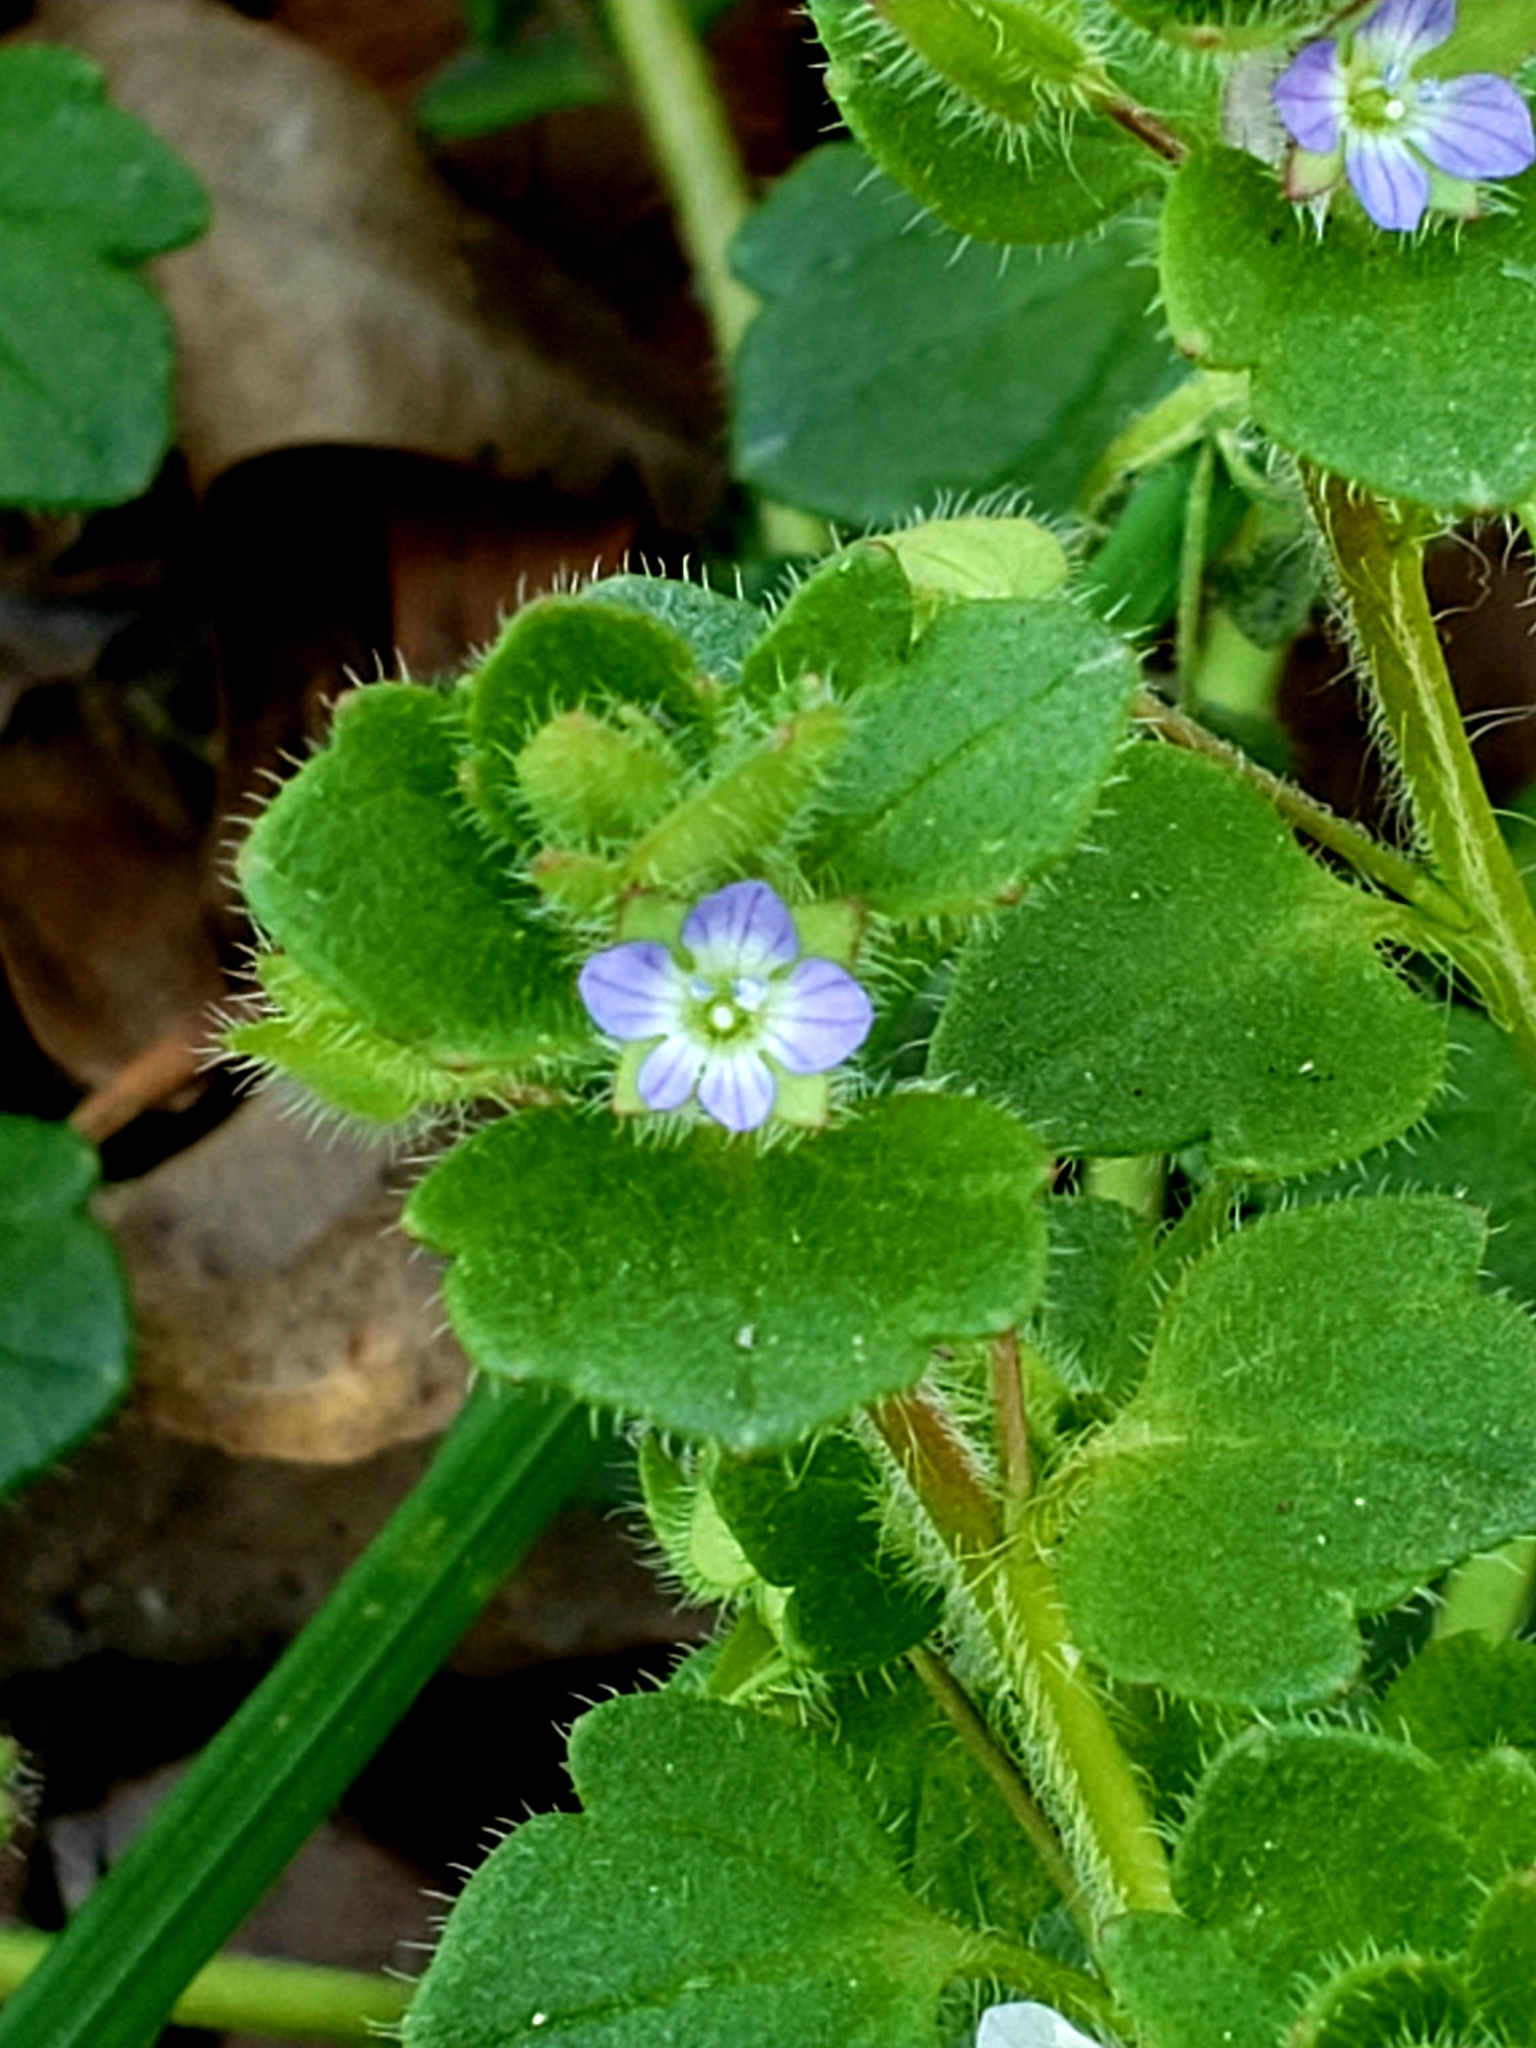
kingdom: Plantae
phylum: Tracheophyta
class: Magnoliopsida
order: Lamiales
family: Plantaginaceae
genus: Veronica
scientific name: Veronica hederifolia
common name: Ivy-leaved speedwell
